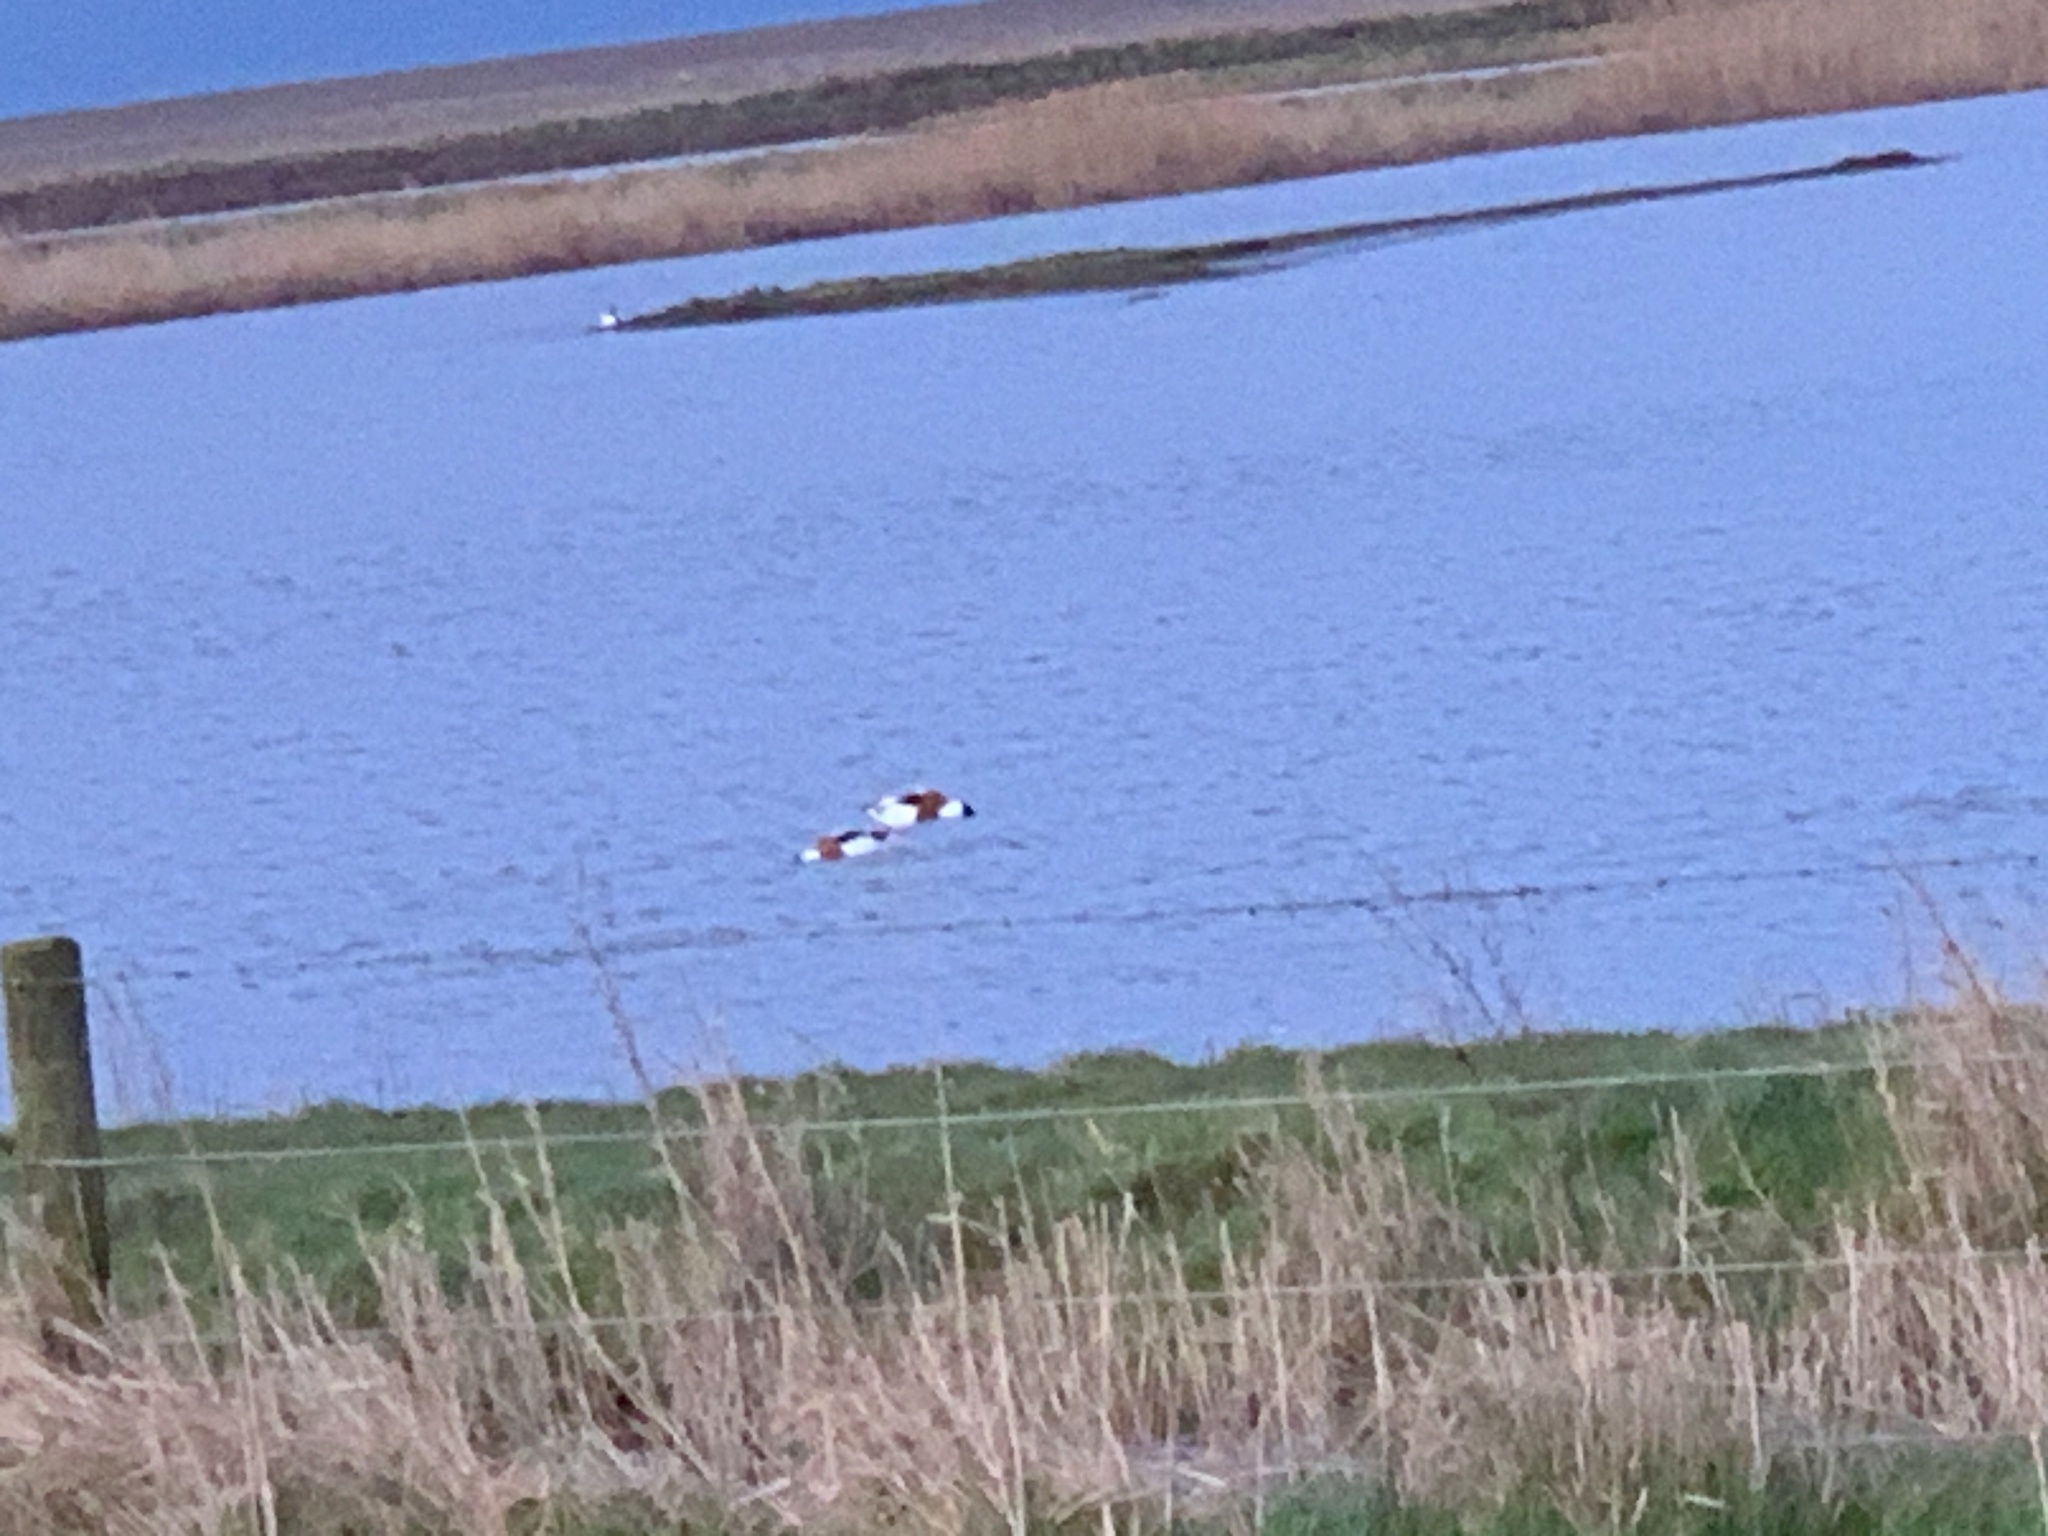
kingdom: Animalia
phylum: Chordata
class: Aves
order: Anseriformes
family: Anatidae
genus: Tadorna
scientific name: Tadorna tadorna
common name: Common shelduck
